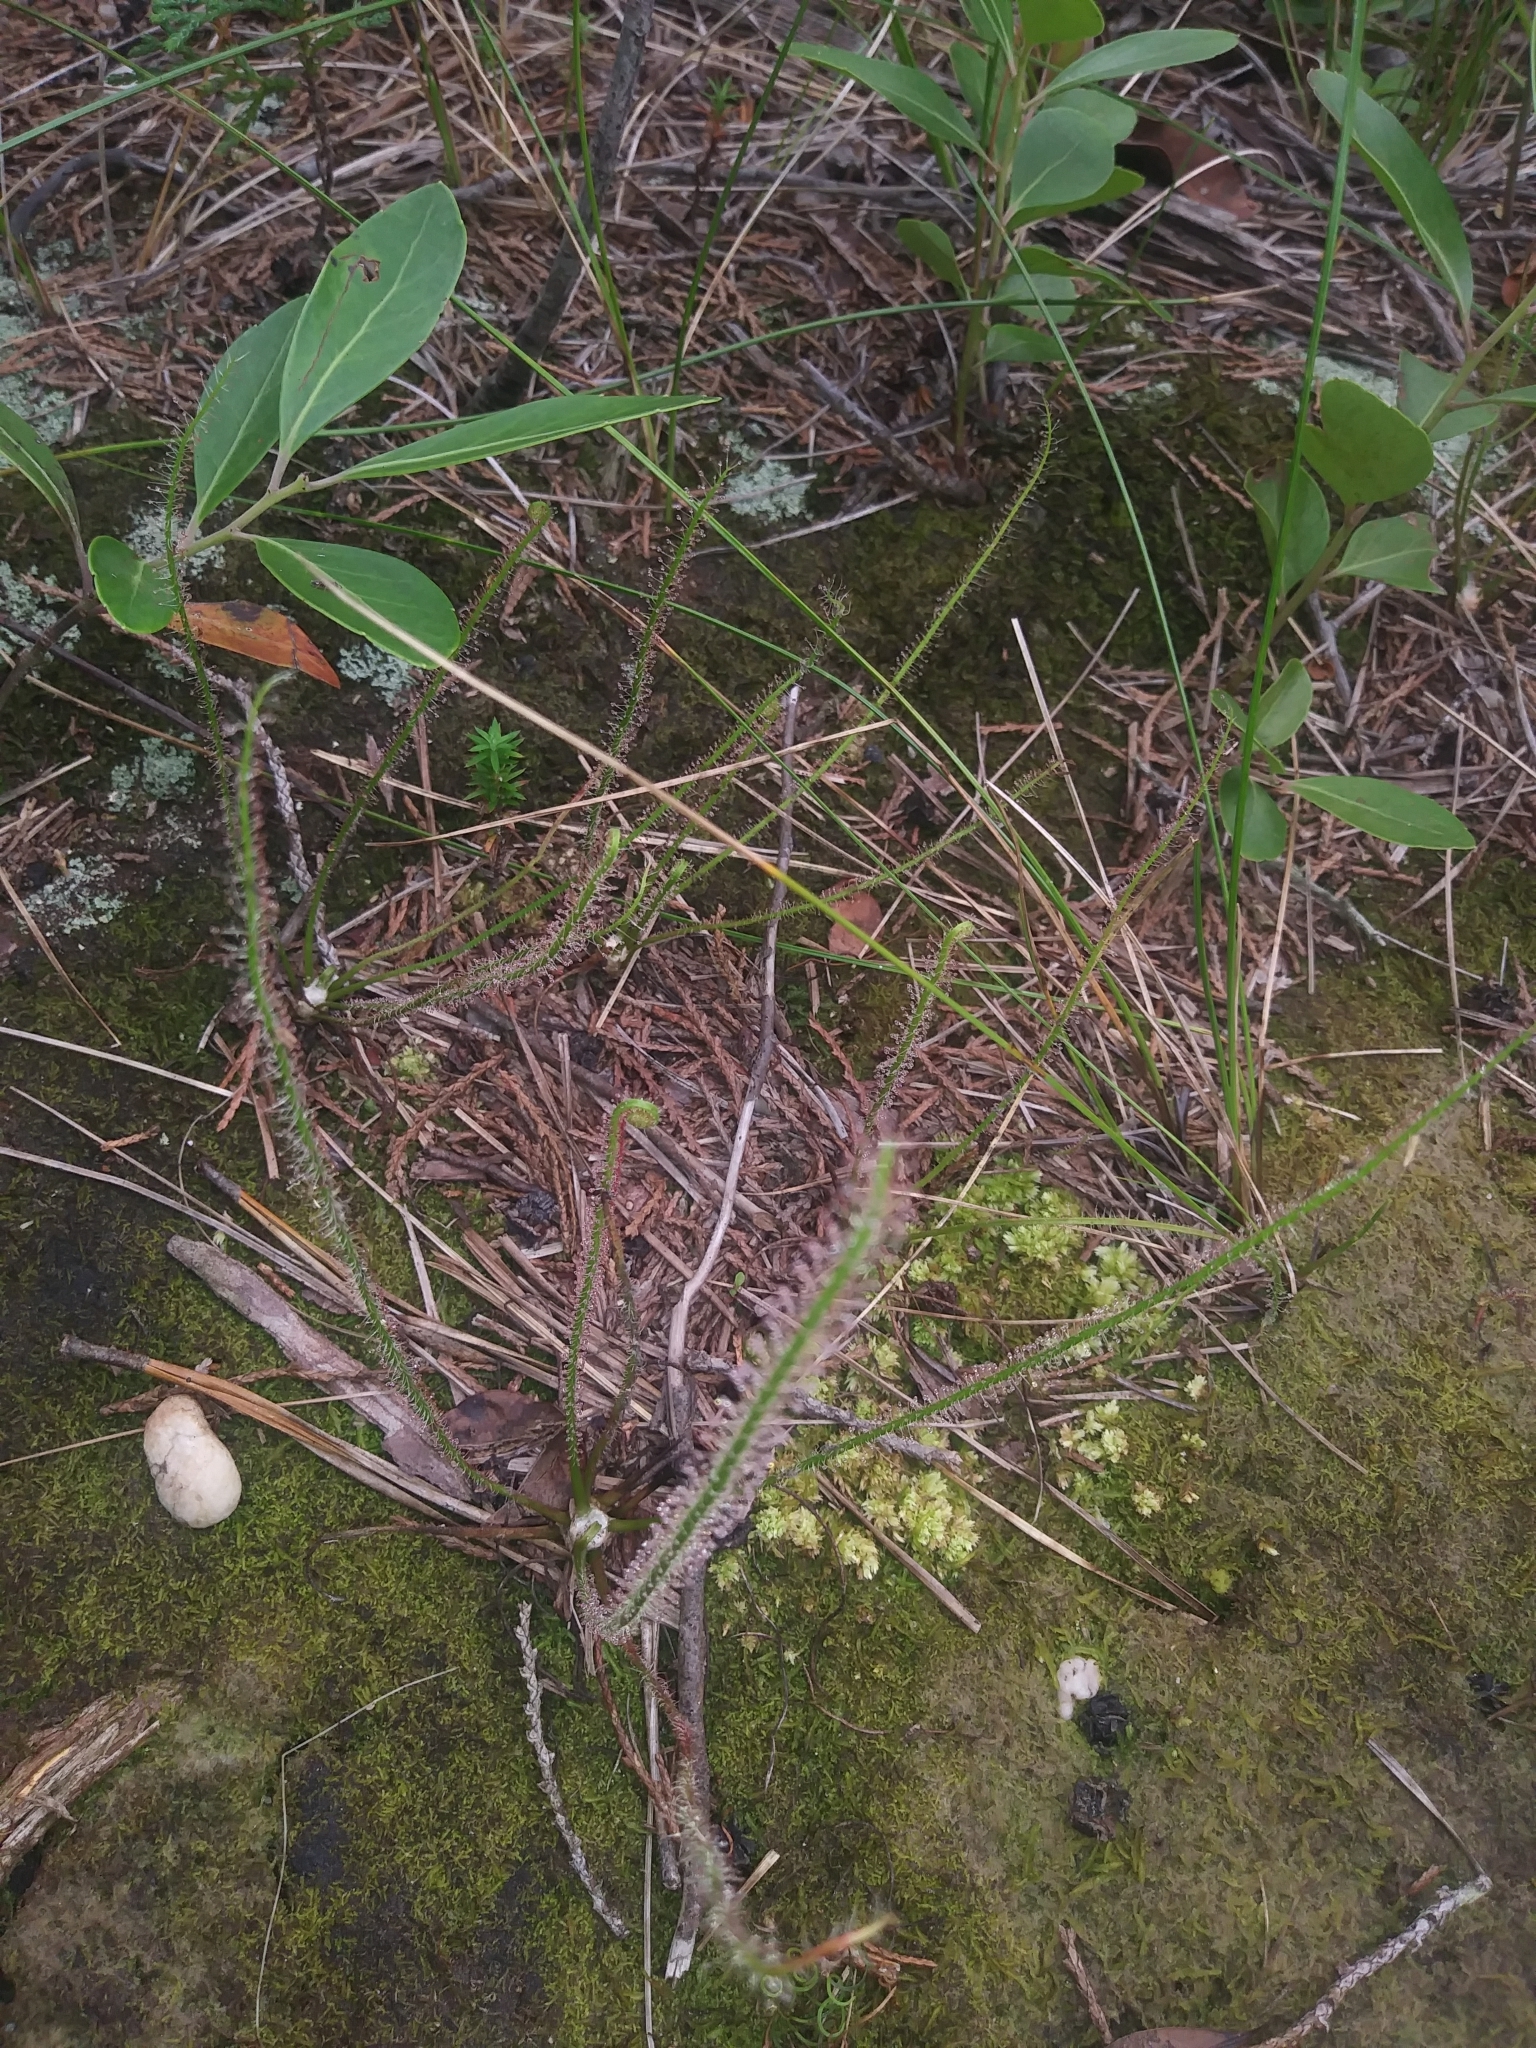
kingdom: Plantae
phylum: Tracheophyta
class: Magnoliopsida
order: Caryophyllales
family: Droseraceae
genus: Drosera
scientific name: Drosera filiformis
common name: Dew-thread
